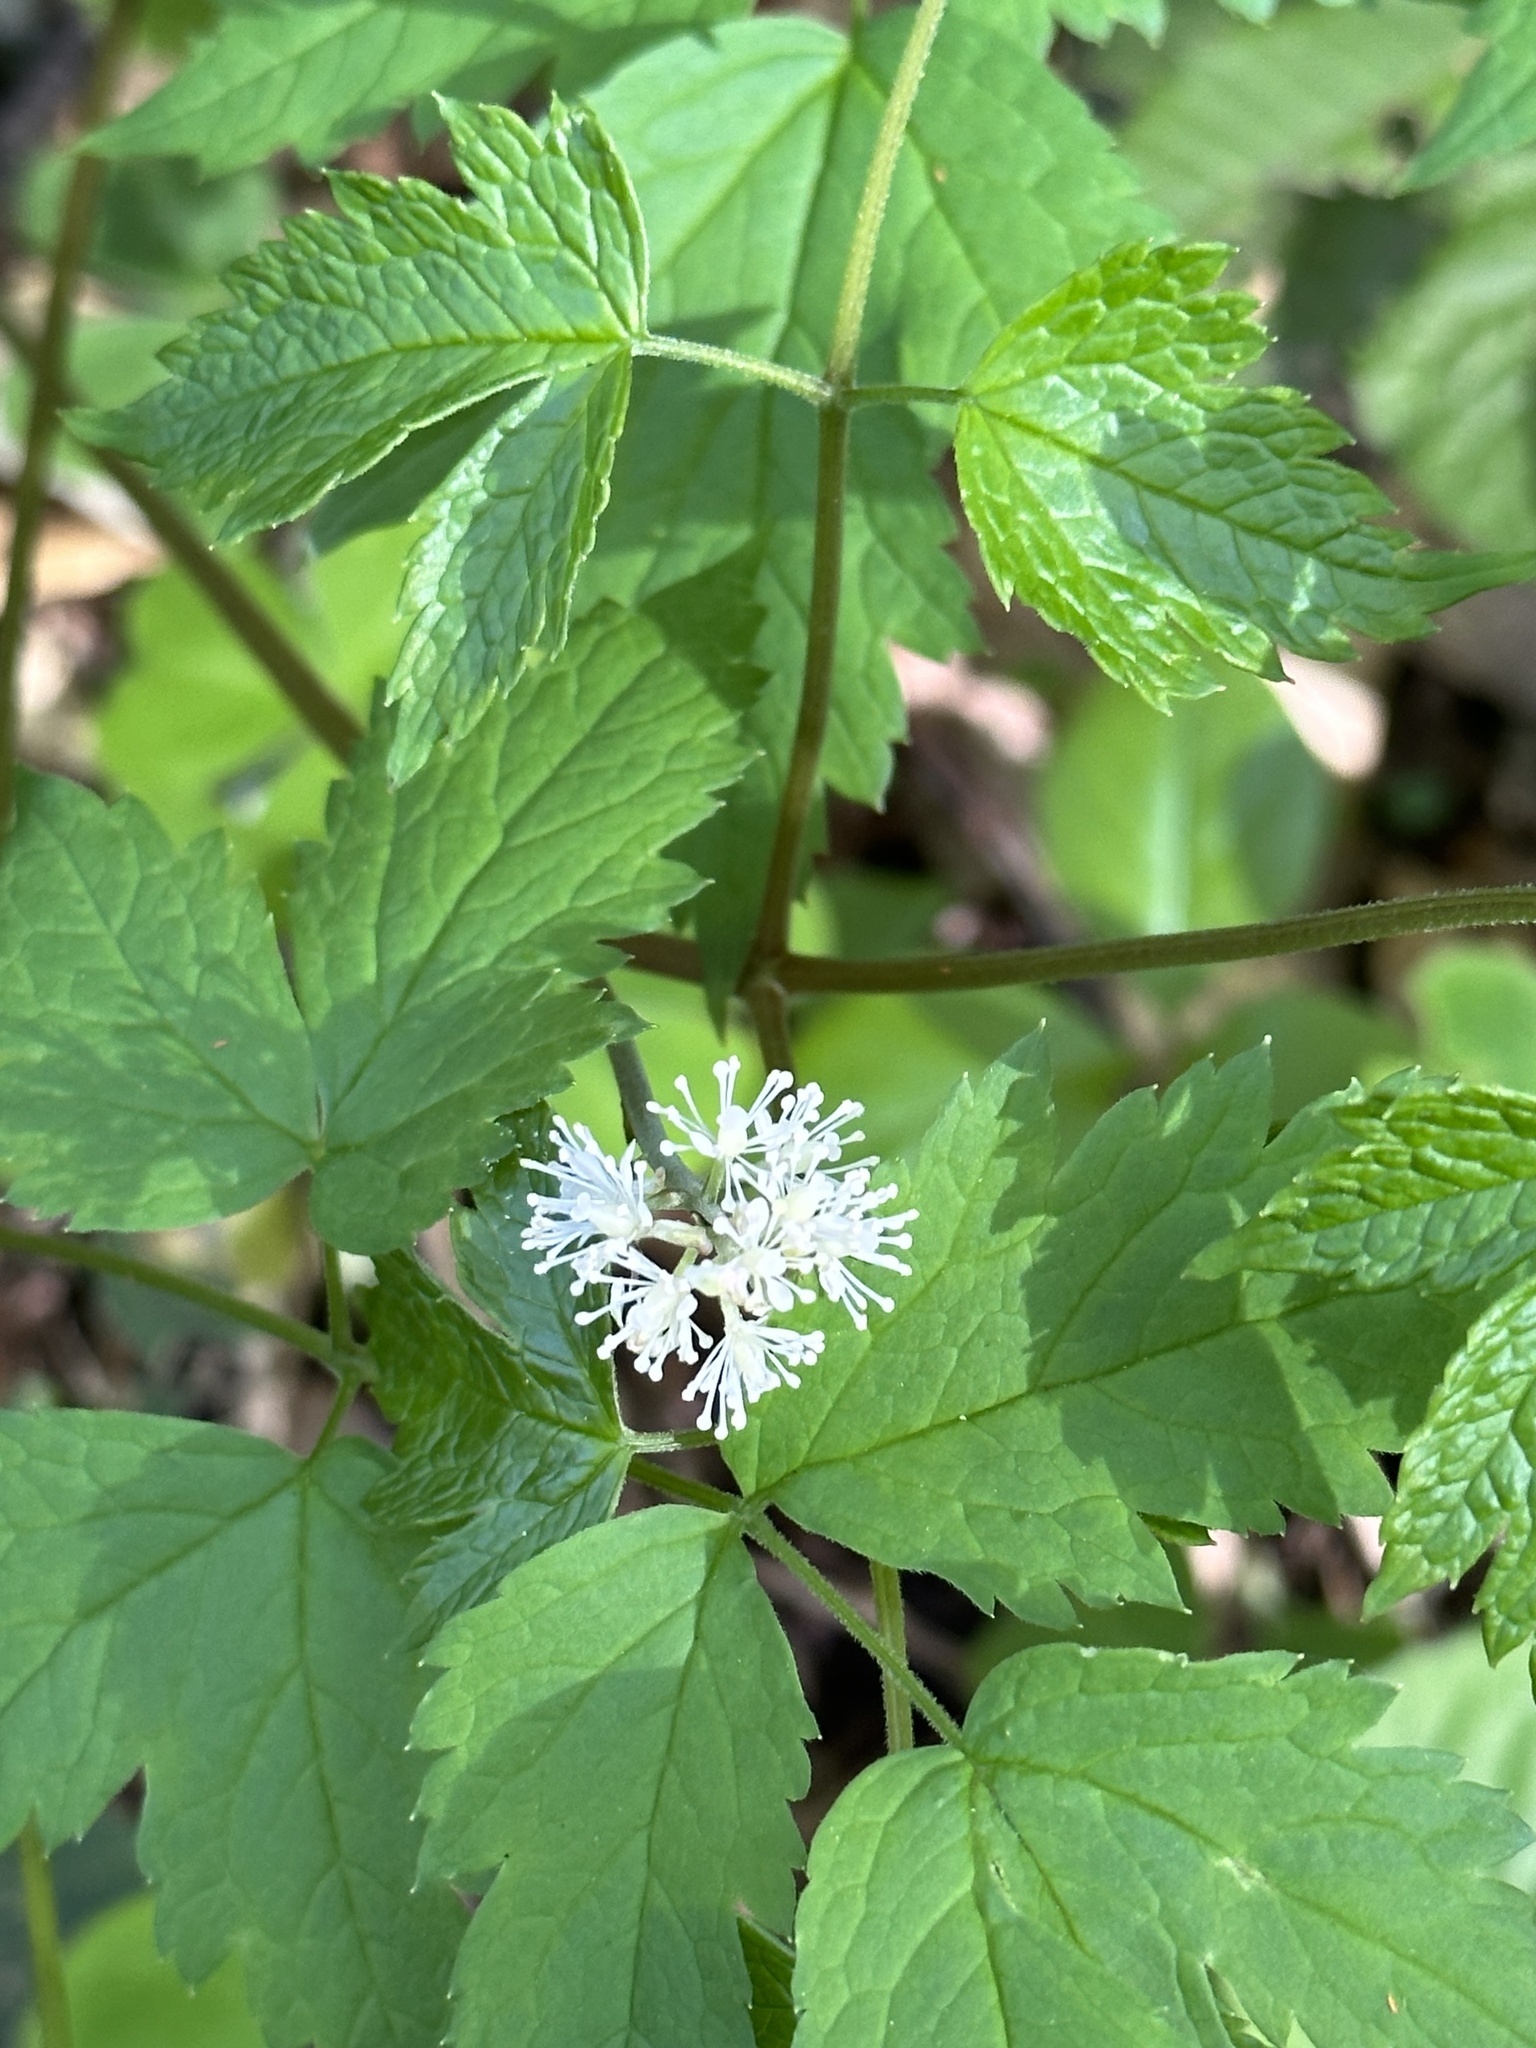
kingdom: Plantae
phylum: Tracheophyta
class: Magnoliopsida
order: Ranunculales
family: Ranunculaceae
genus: Actaea
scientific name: Actaea rubra
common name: Red baneberry
